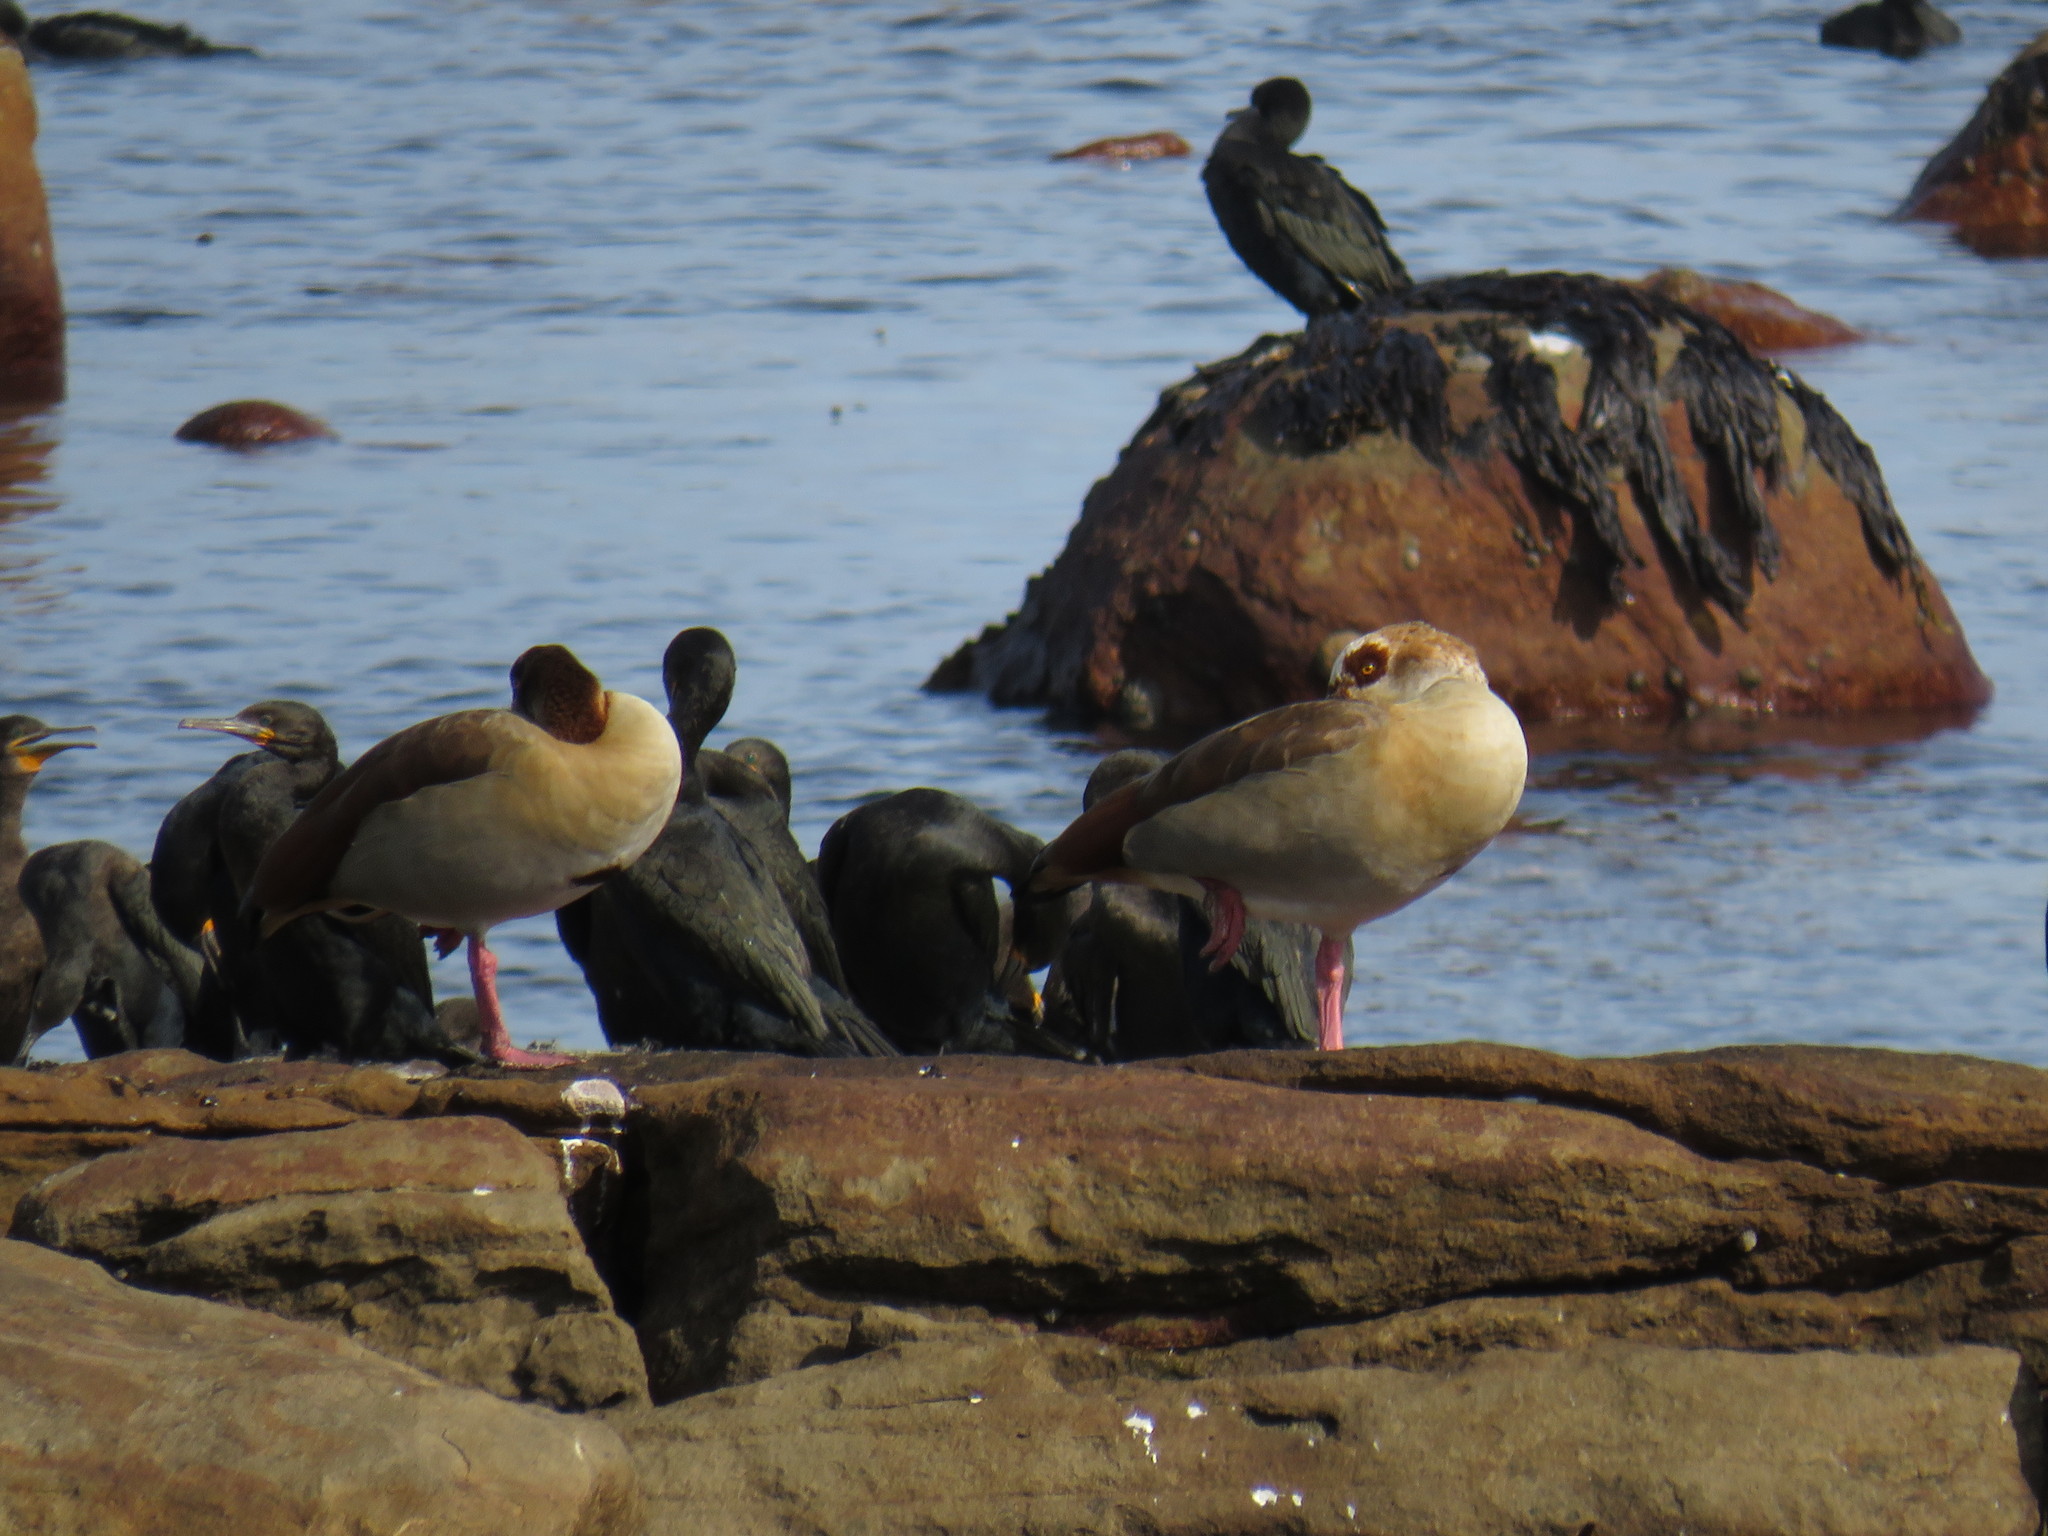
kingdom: Animalia
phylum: Chordata
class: Aves
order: Anseriformes
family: Anatidae
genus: Alopochen
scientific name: Alopochen aegyptiaca
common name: Egyptian goose
